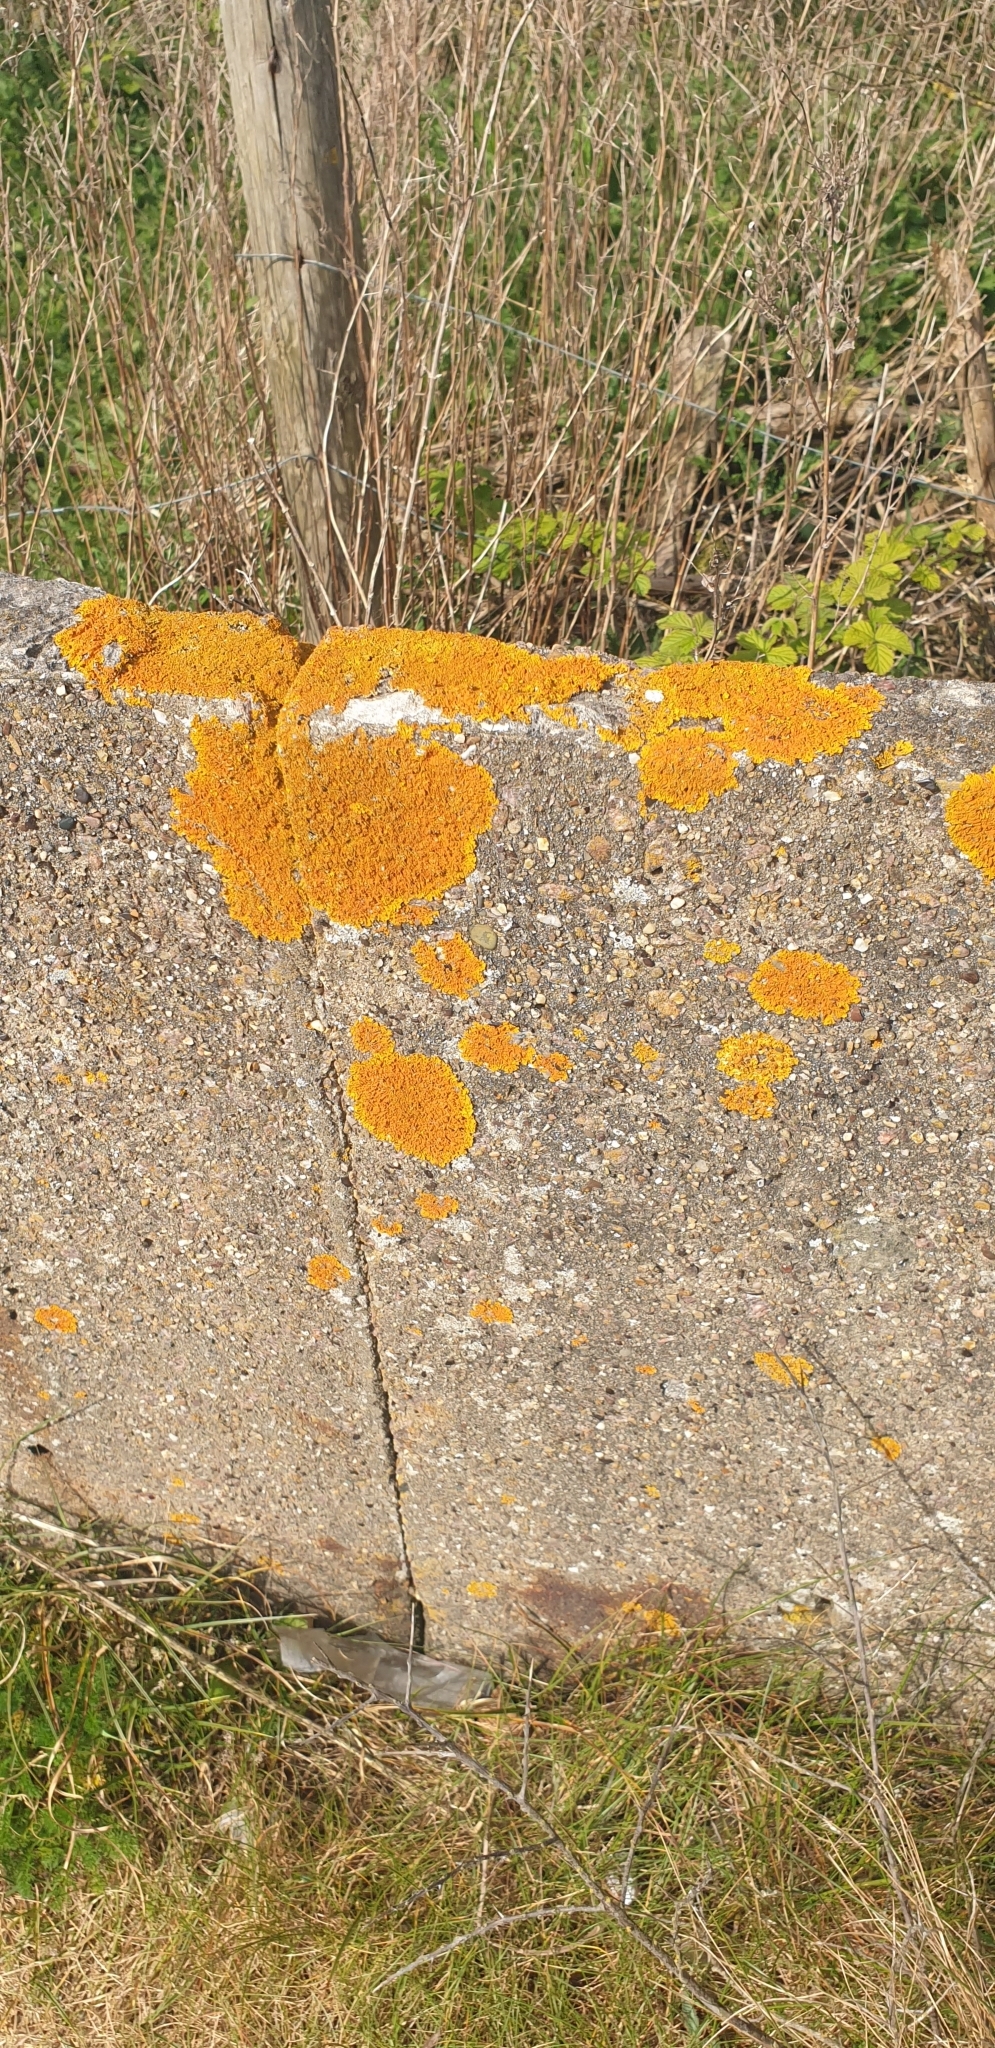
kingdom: Fungi
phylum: Ascomycota
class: Lecanoromycetes
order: Teloschistales
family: Teloschistaceae
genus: Xanthoria
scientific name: Xanthoria calcicola
